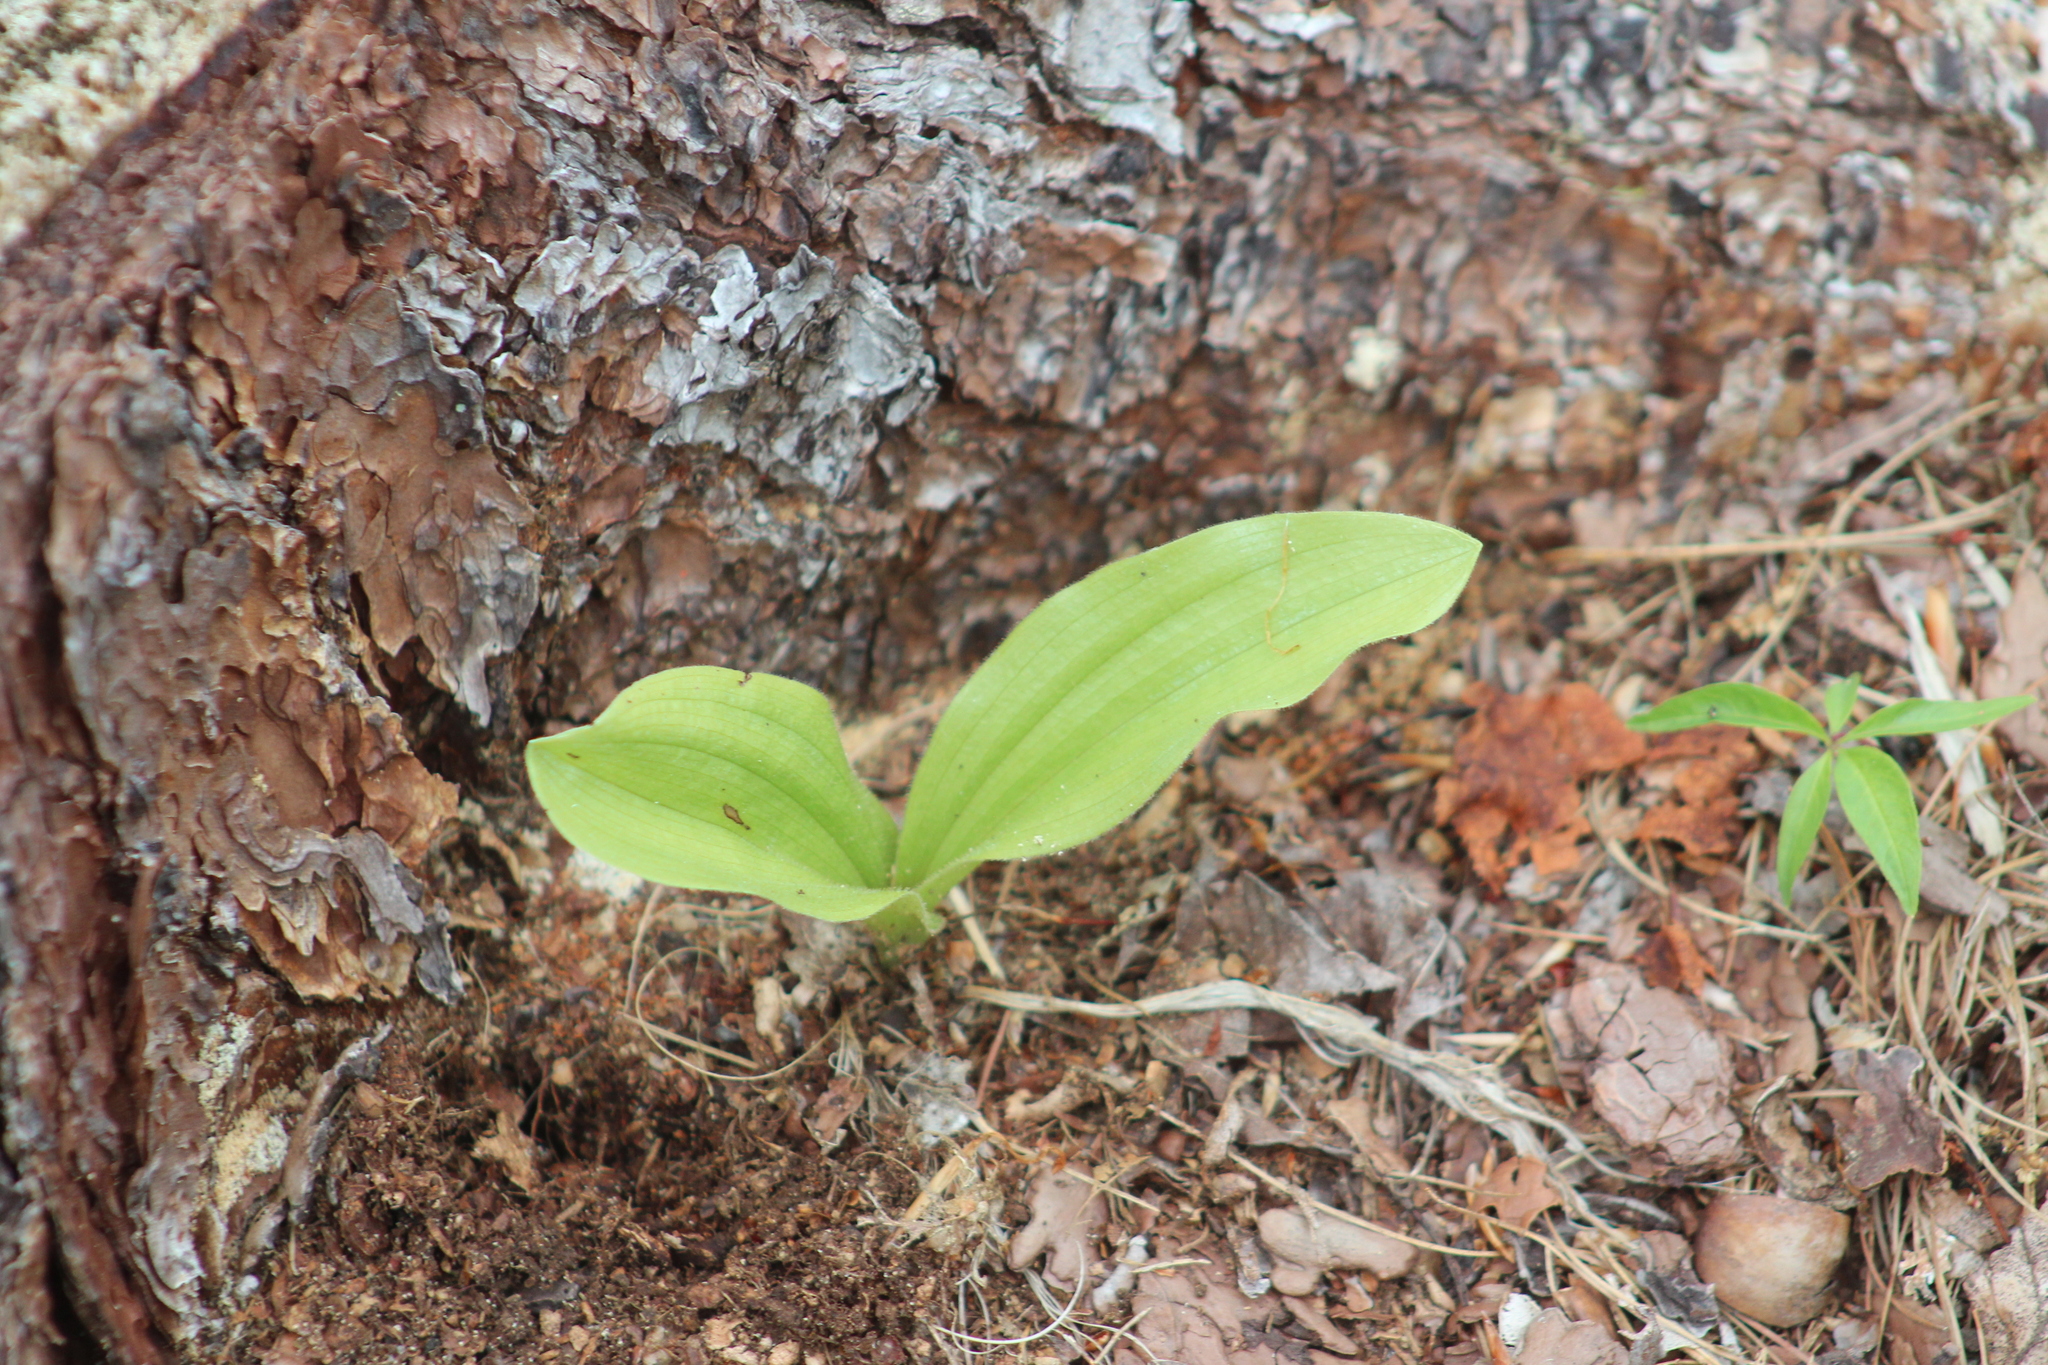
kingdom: Plantae
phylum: Tracheophyta
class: Liliopsida
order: Asparagales
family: Orchidaceae
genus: Cypripedium
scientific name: Cypripedium acaule
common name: Pink lady's-slipper
